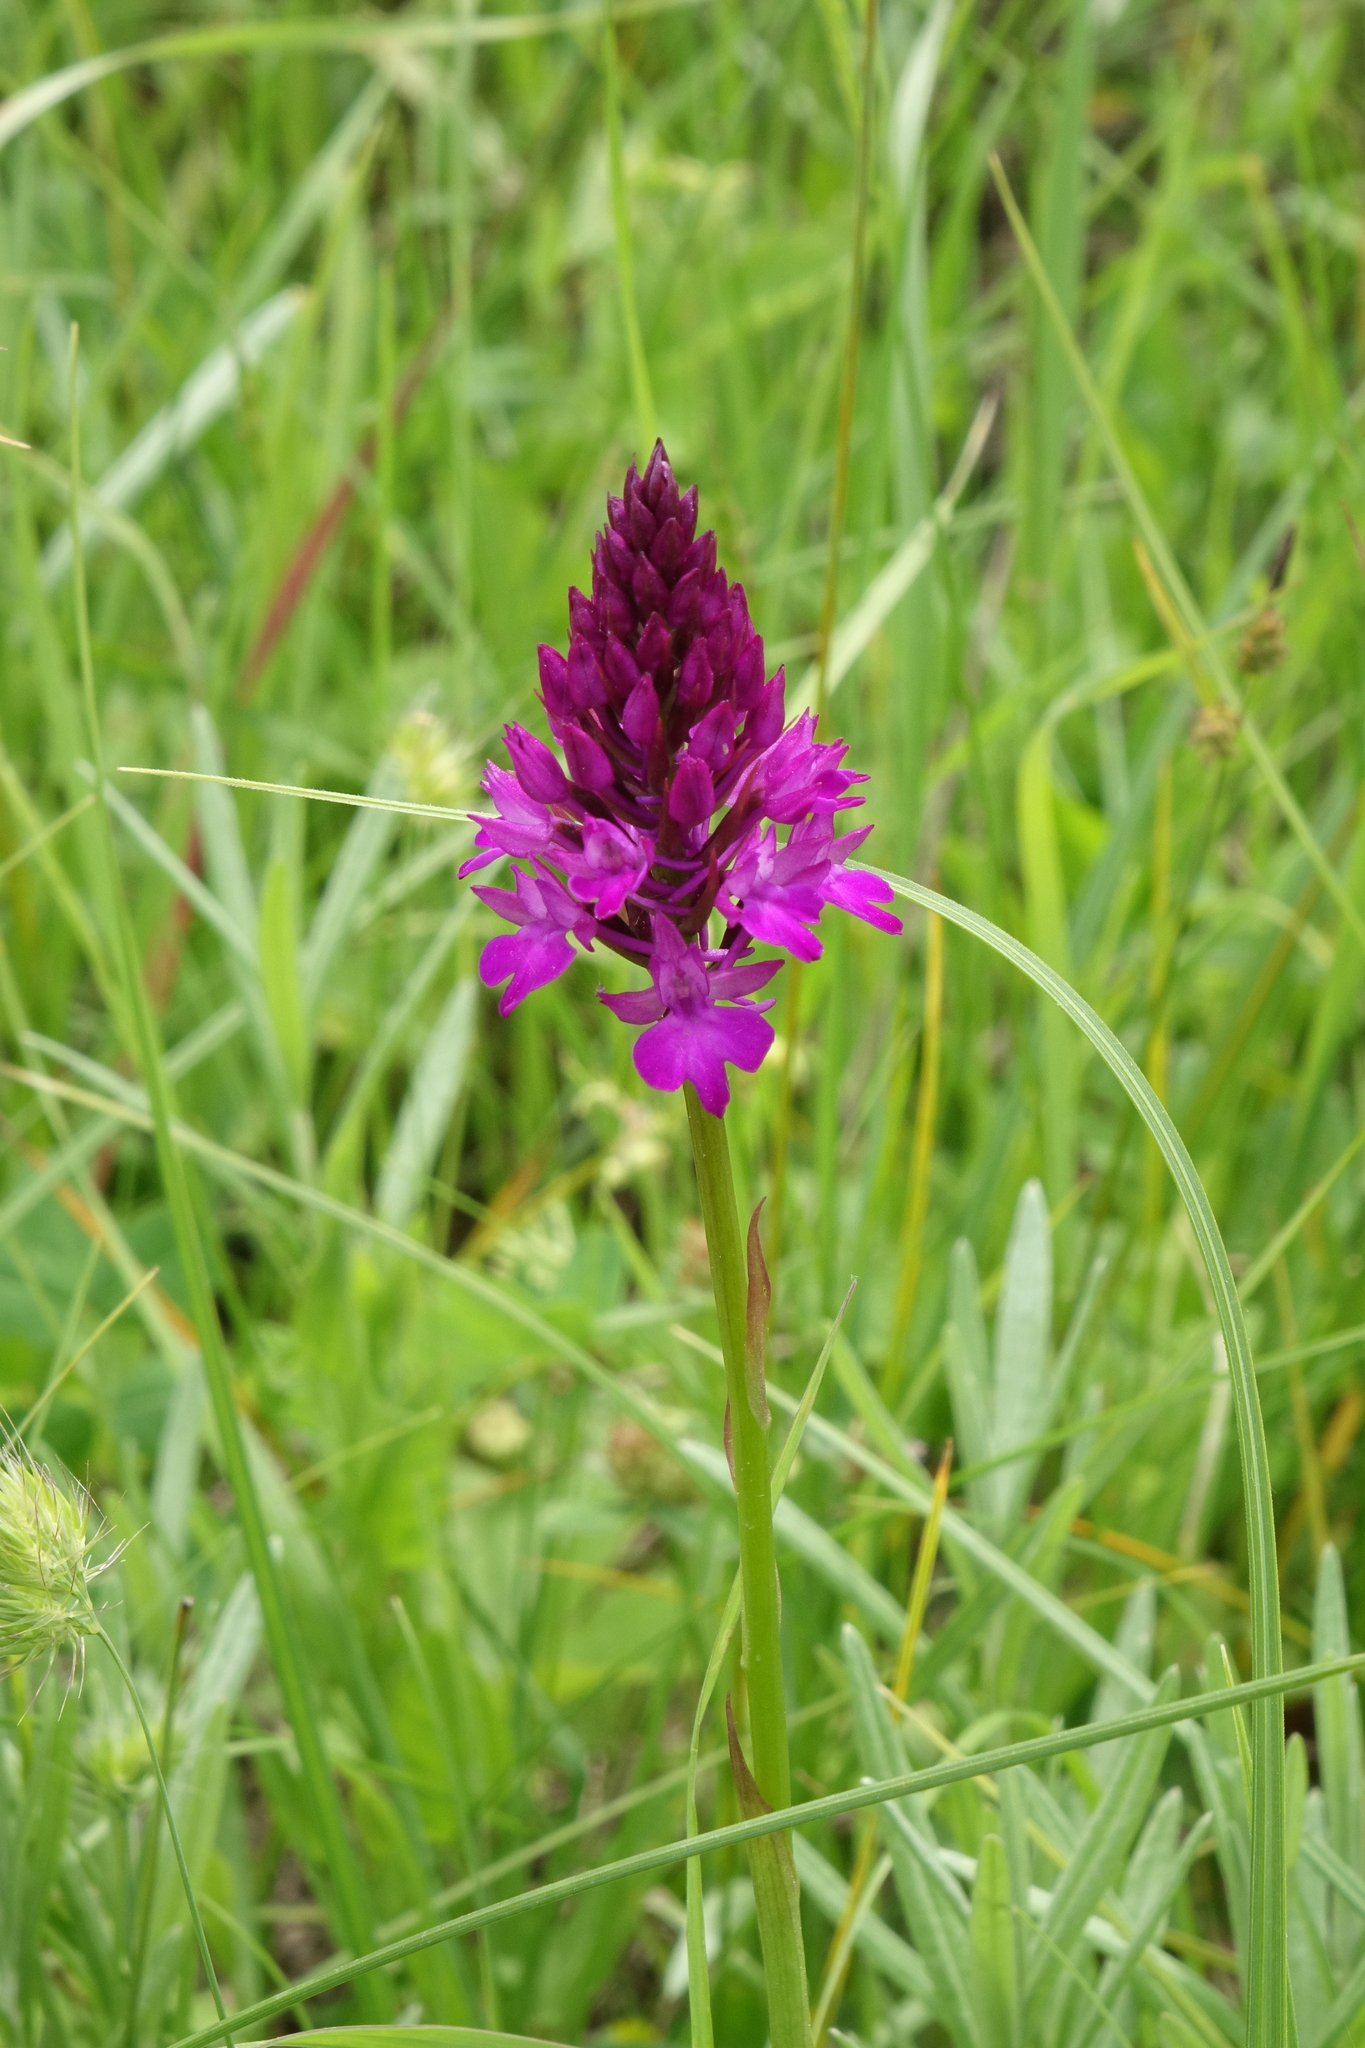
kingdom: Plantae
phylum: Tracheophyta
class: Liliopsida
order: Asparagales
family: Orchidaceae
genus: Anacamptis
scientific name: Anacamptis pyramidalis
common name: Pyramidal orchid
